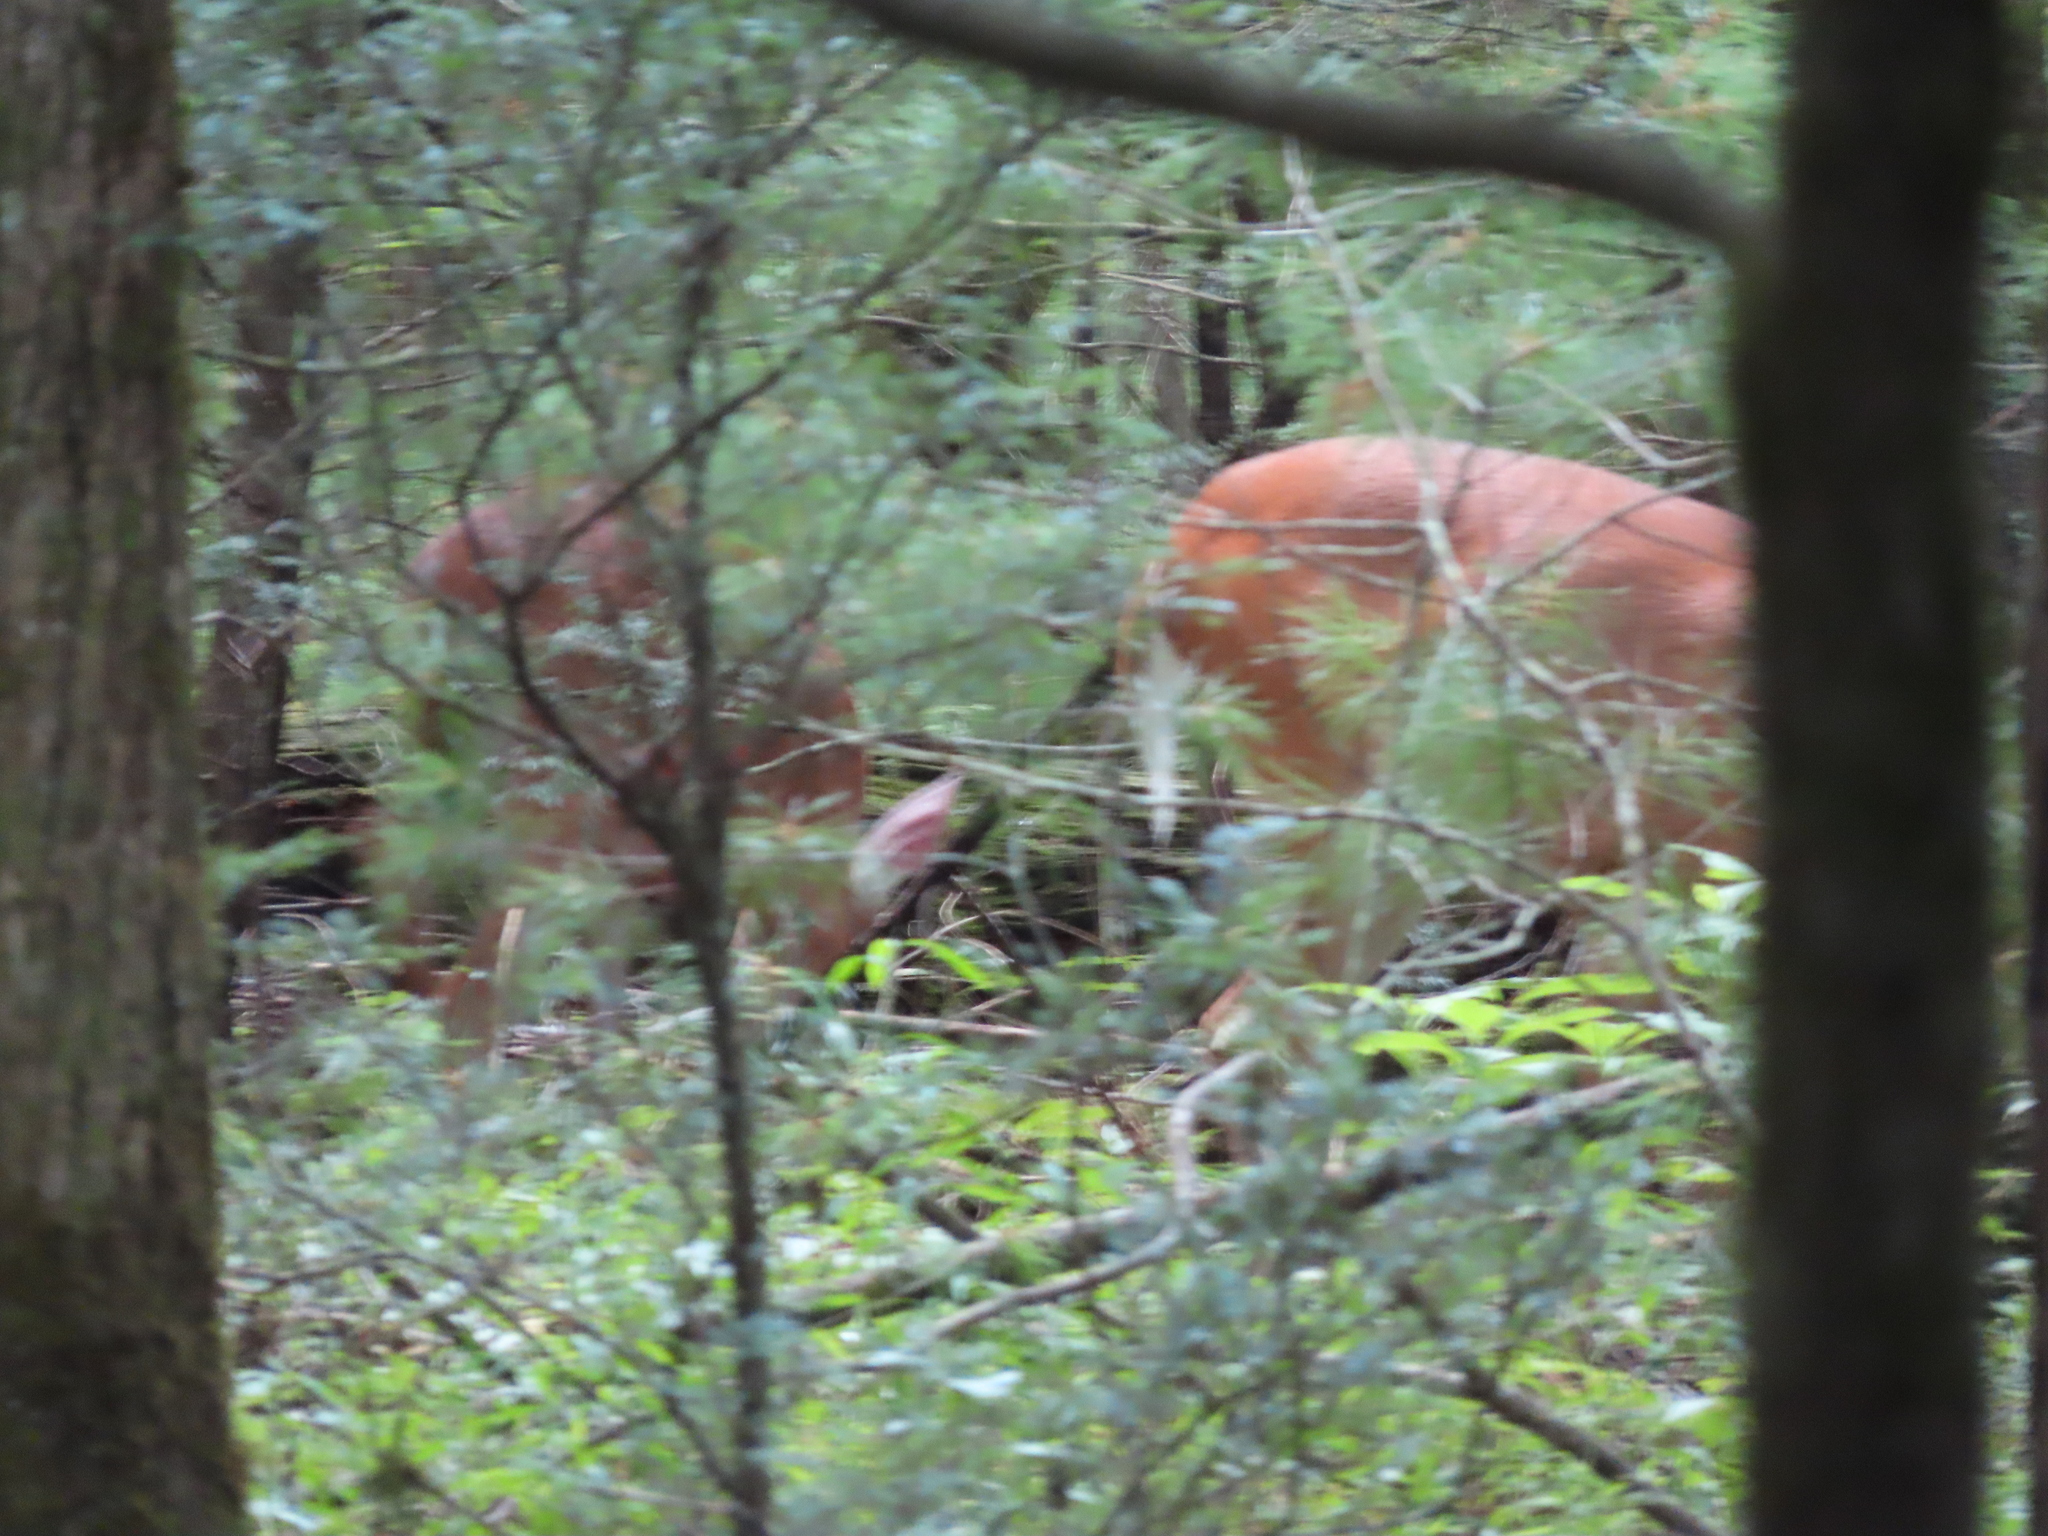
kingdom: Animalia
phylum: Chordata
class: Mammalia
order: Artiodactyla
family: Cervidae
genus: Odocoileus
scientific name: Odocoileus virginianus
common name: White-tailed deer
